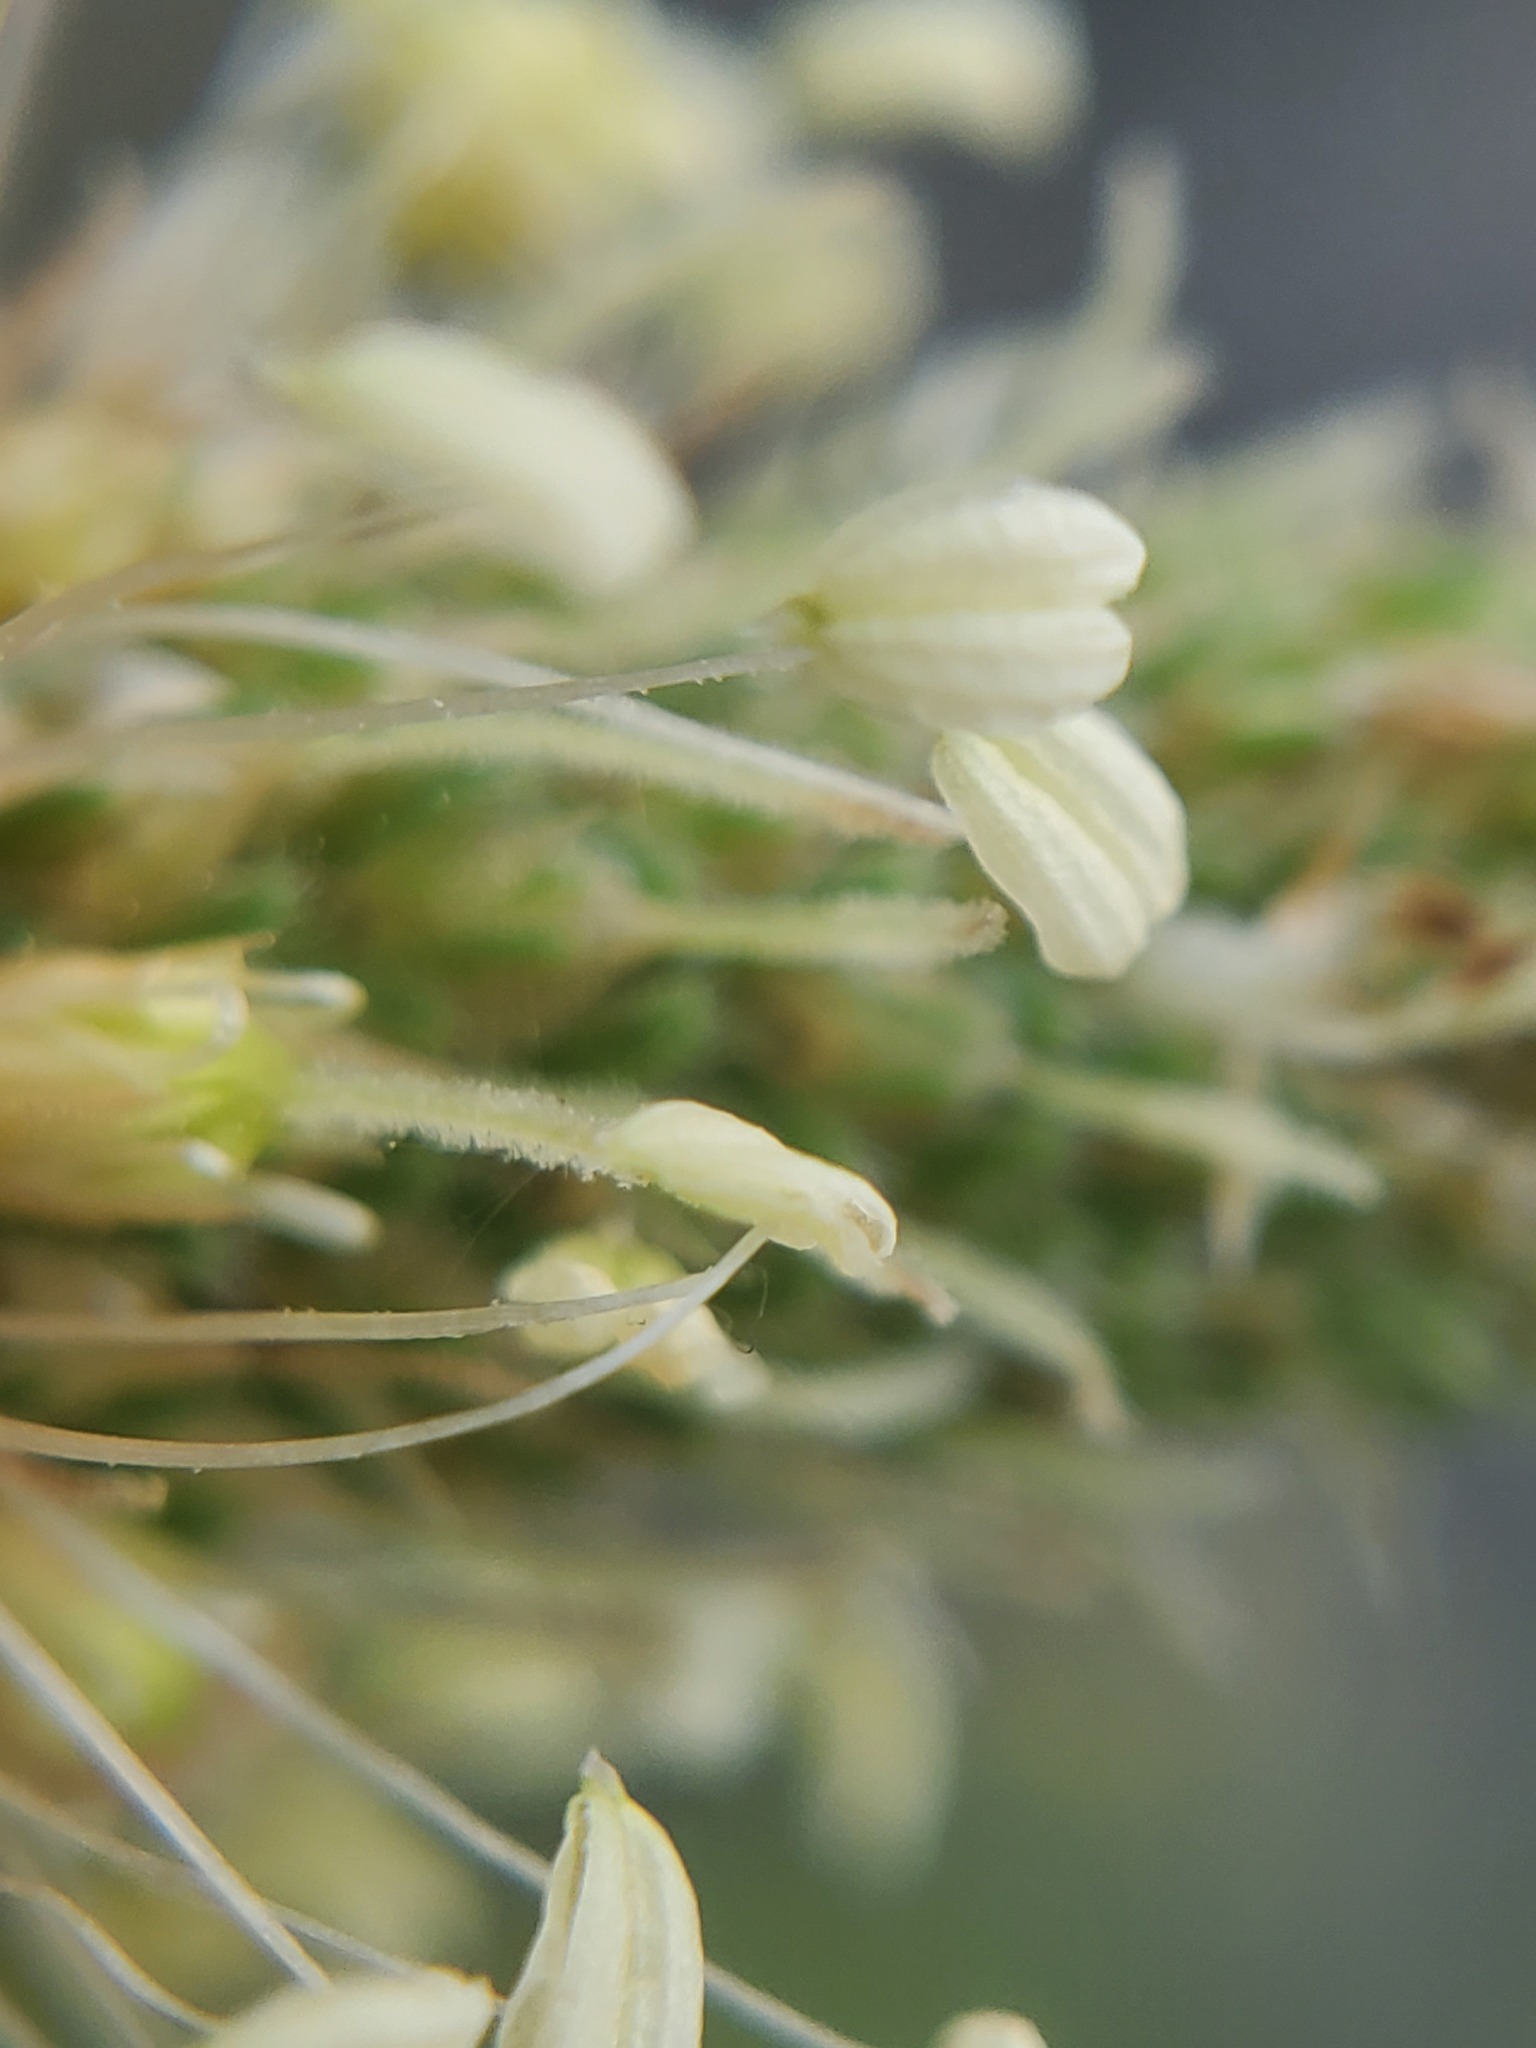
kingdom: Plantae
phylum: Tracheophyta
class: Magnoliopsida
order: Lamiales
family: Plantaginaceae
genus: Plantago
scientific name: Plantago lanceolata
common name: Ribwort plantain
